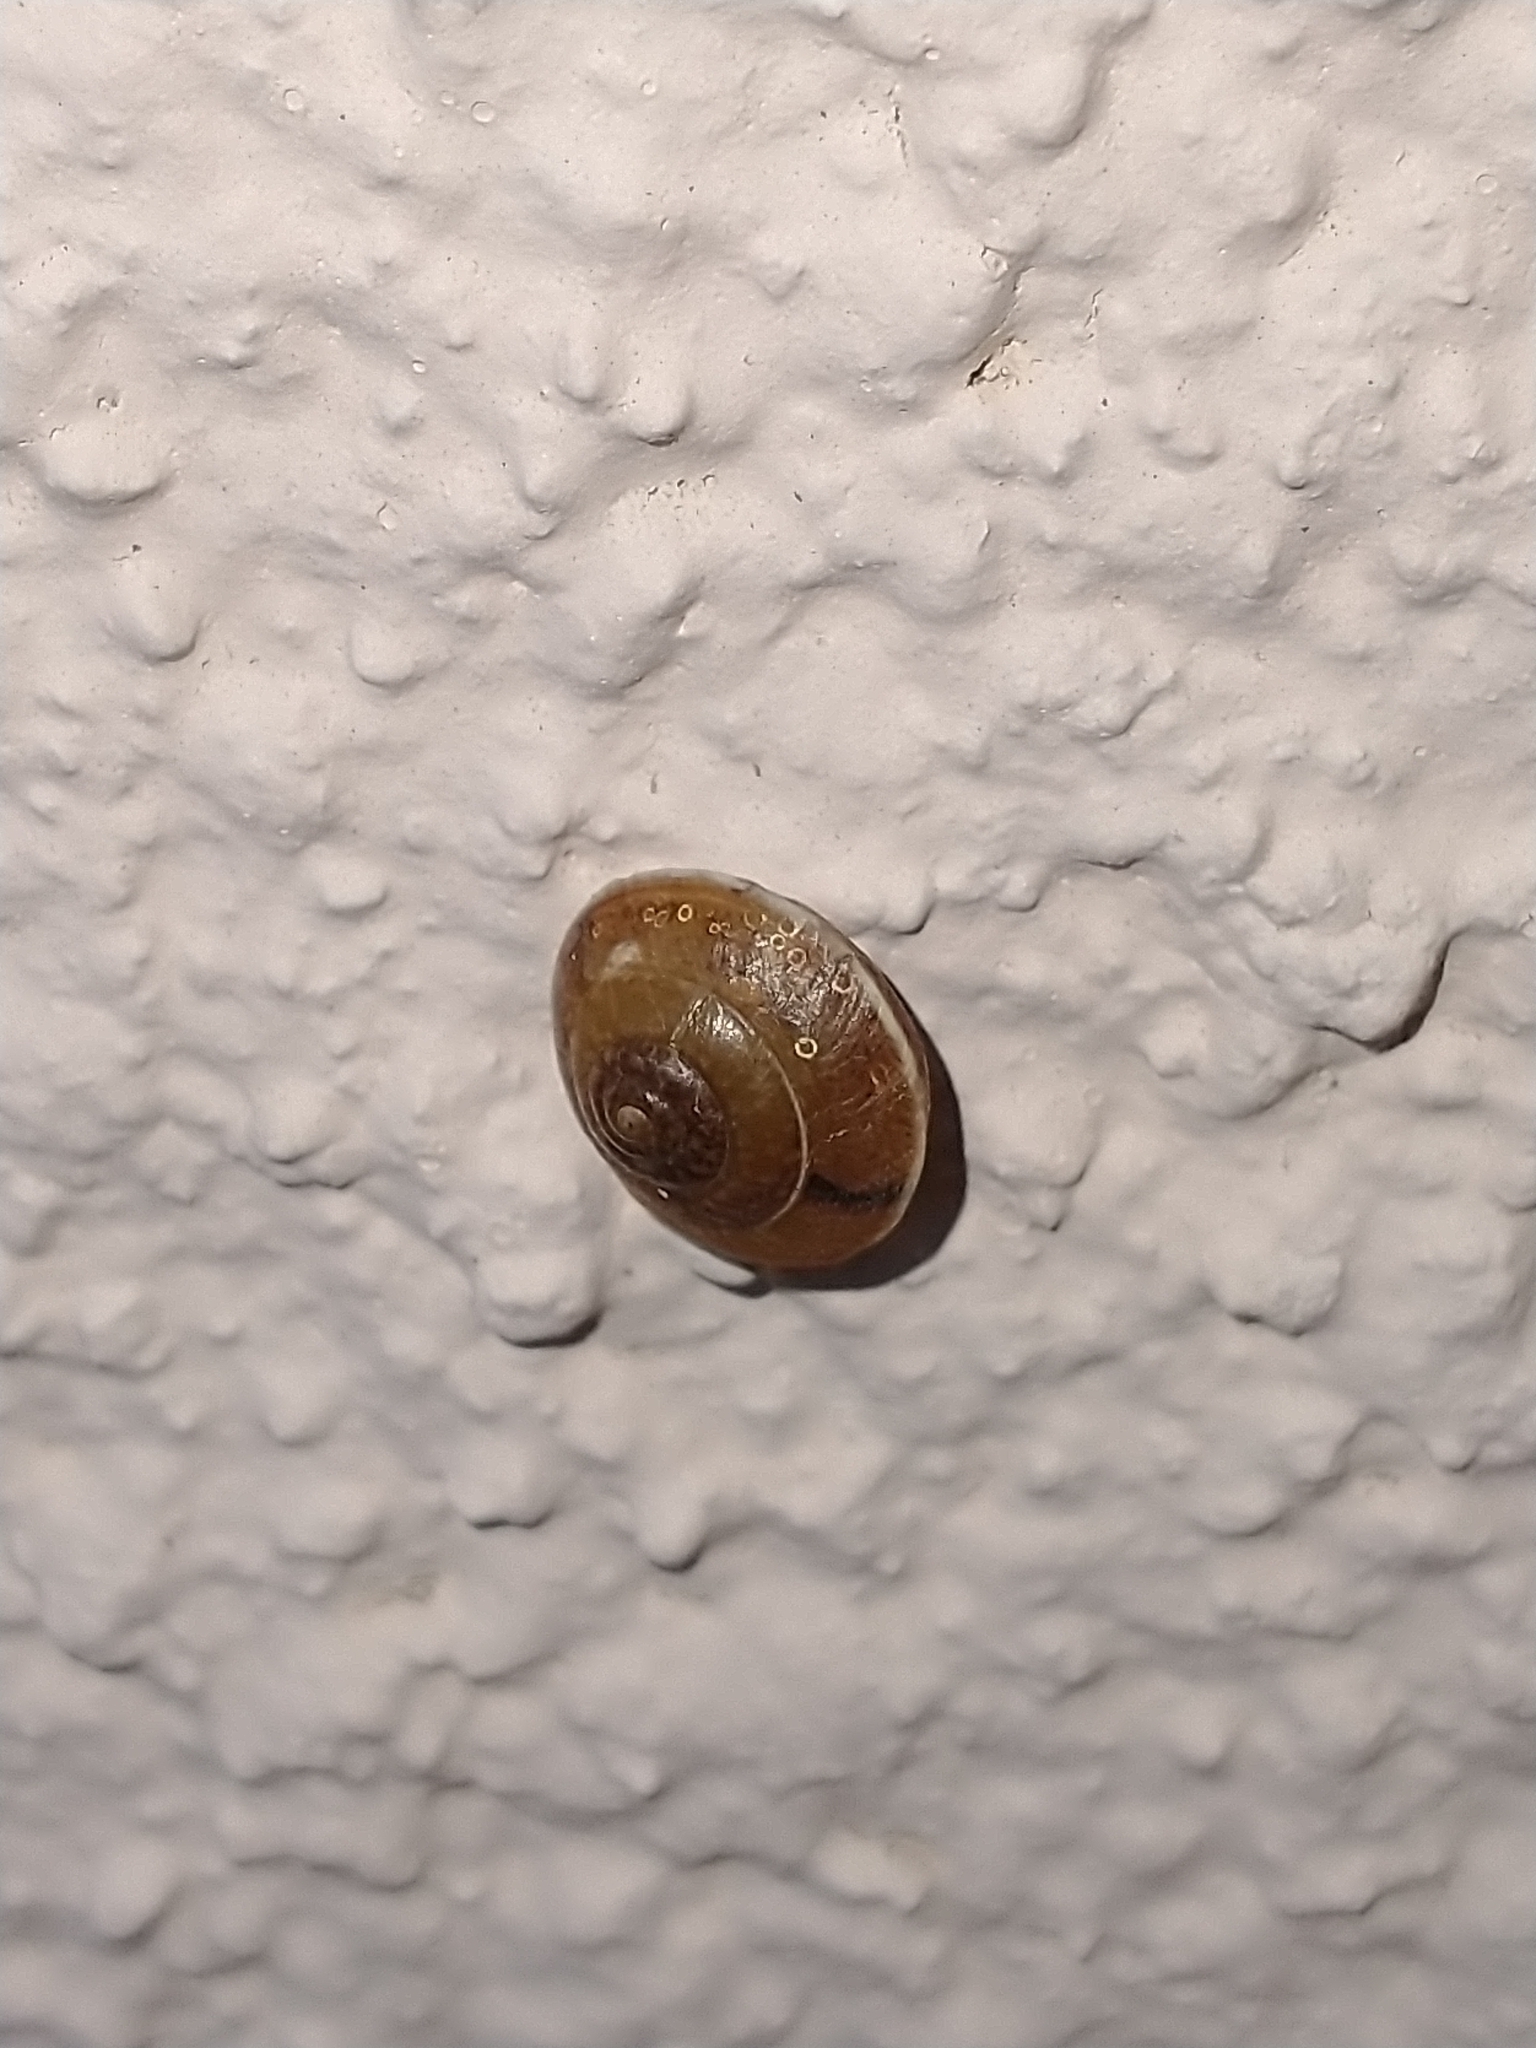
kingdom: Animalia
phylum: Mollusca
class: Gastropoda
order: Stylommatophora
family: Hygromiidae
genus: Hygromia
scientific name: Hygromia cinctella
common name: Girdled snail
